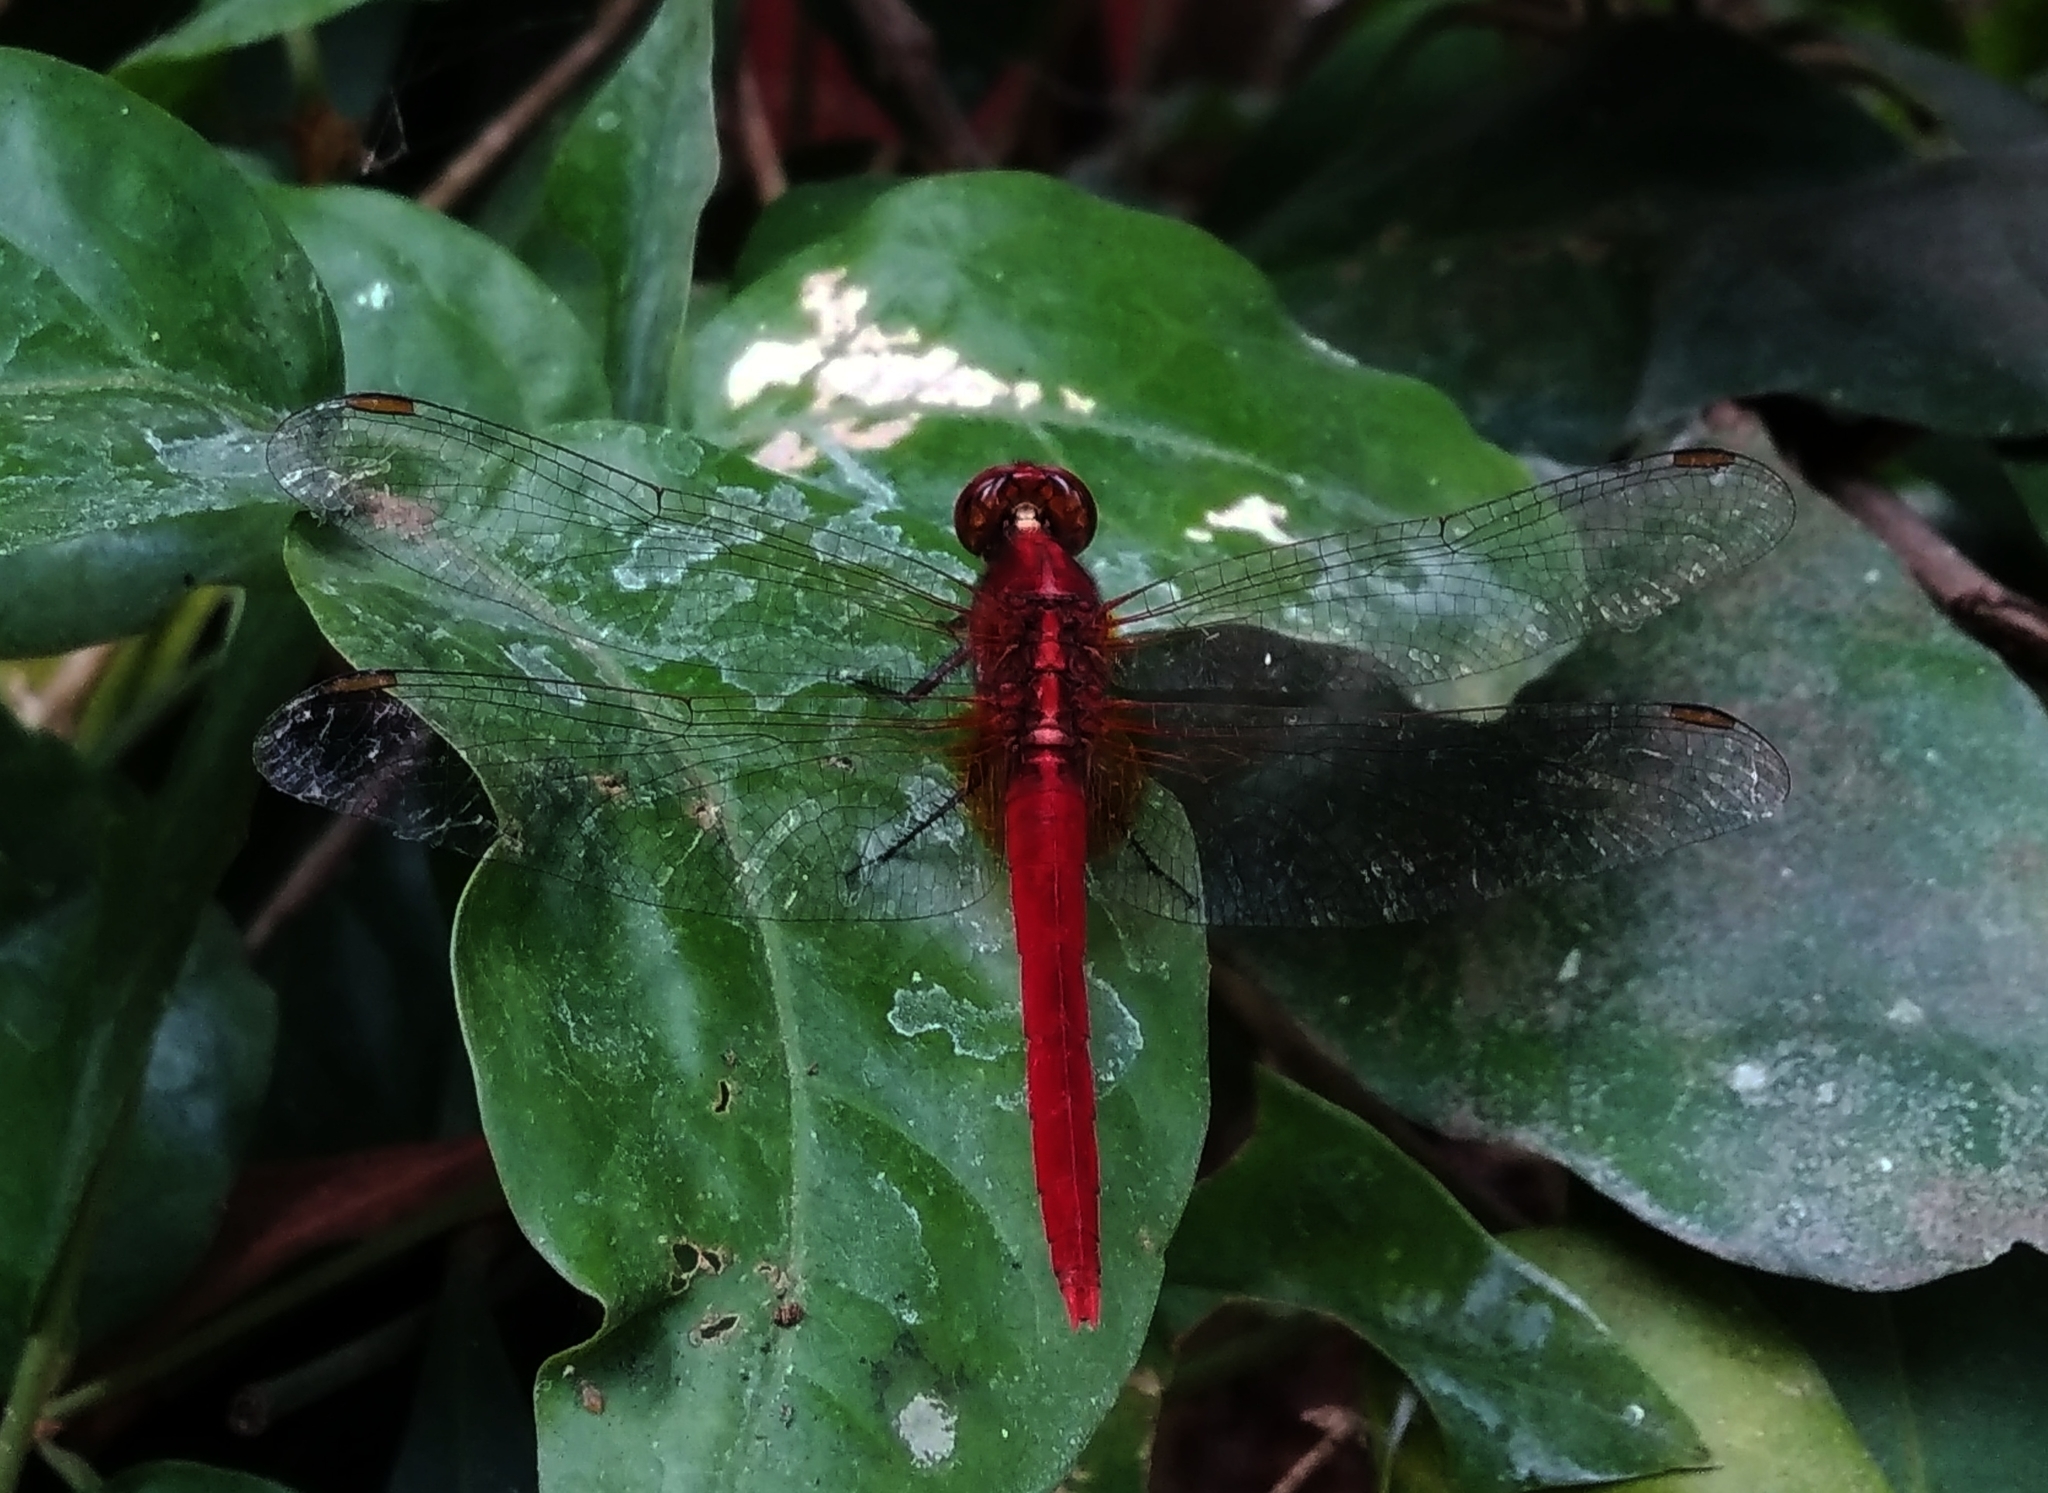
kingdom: Animalia
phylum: Arthropoda
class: Insecta
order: Odonata
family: Libellulidae
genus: Rhodothemis
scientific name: Rhodothemis rufa
